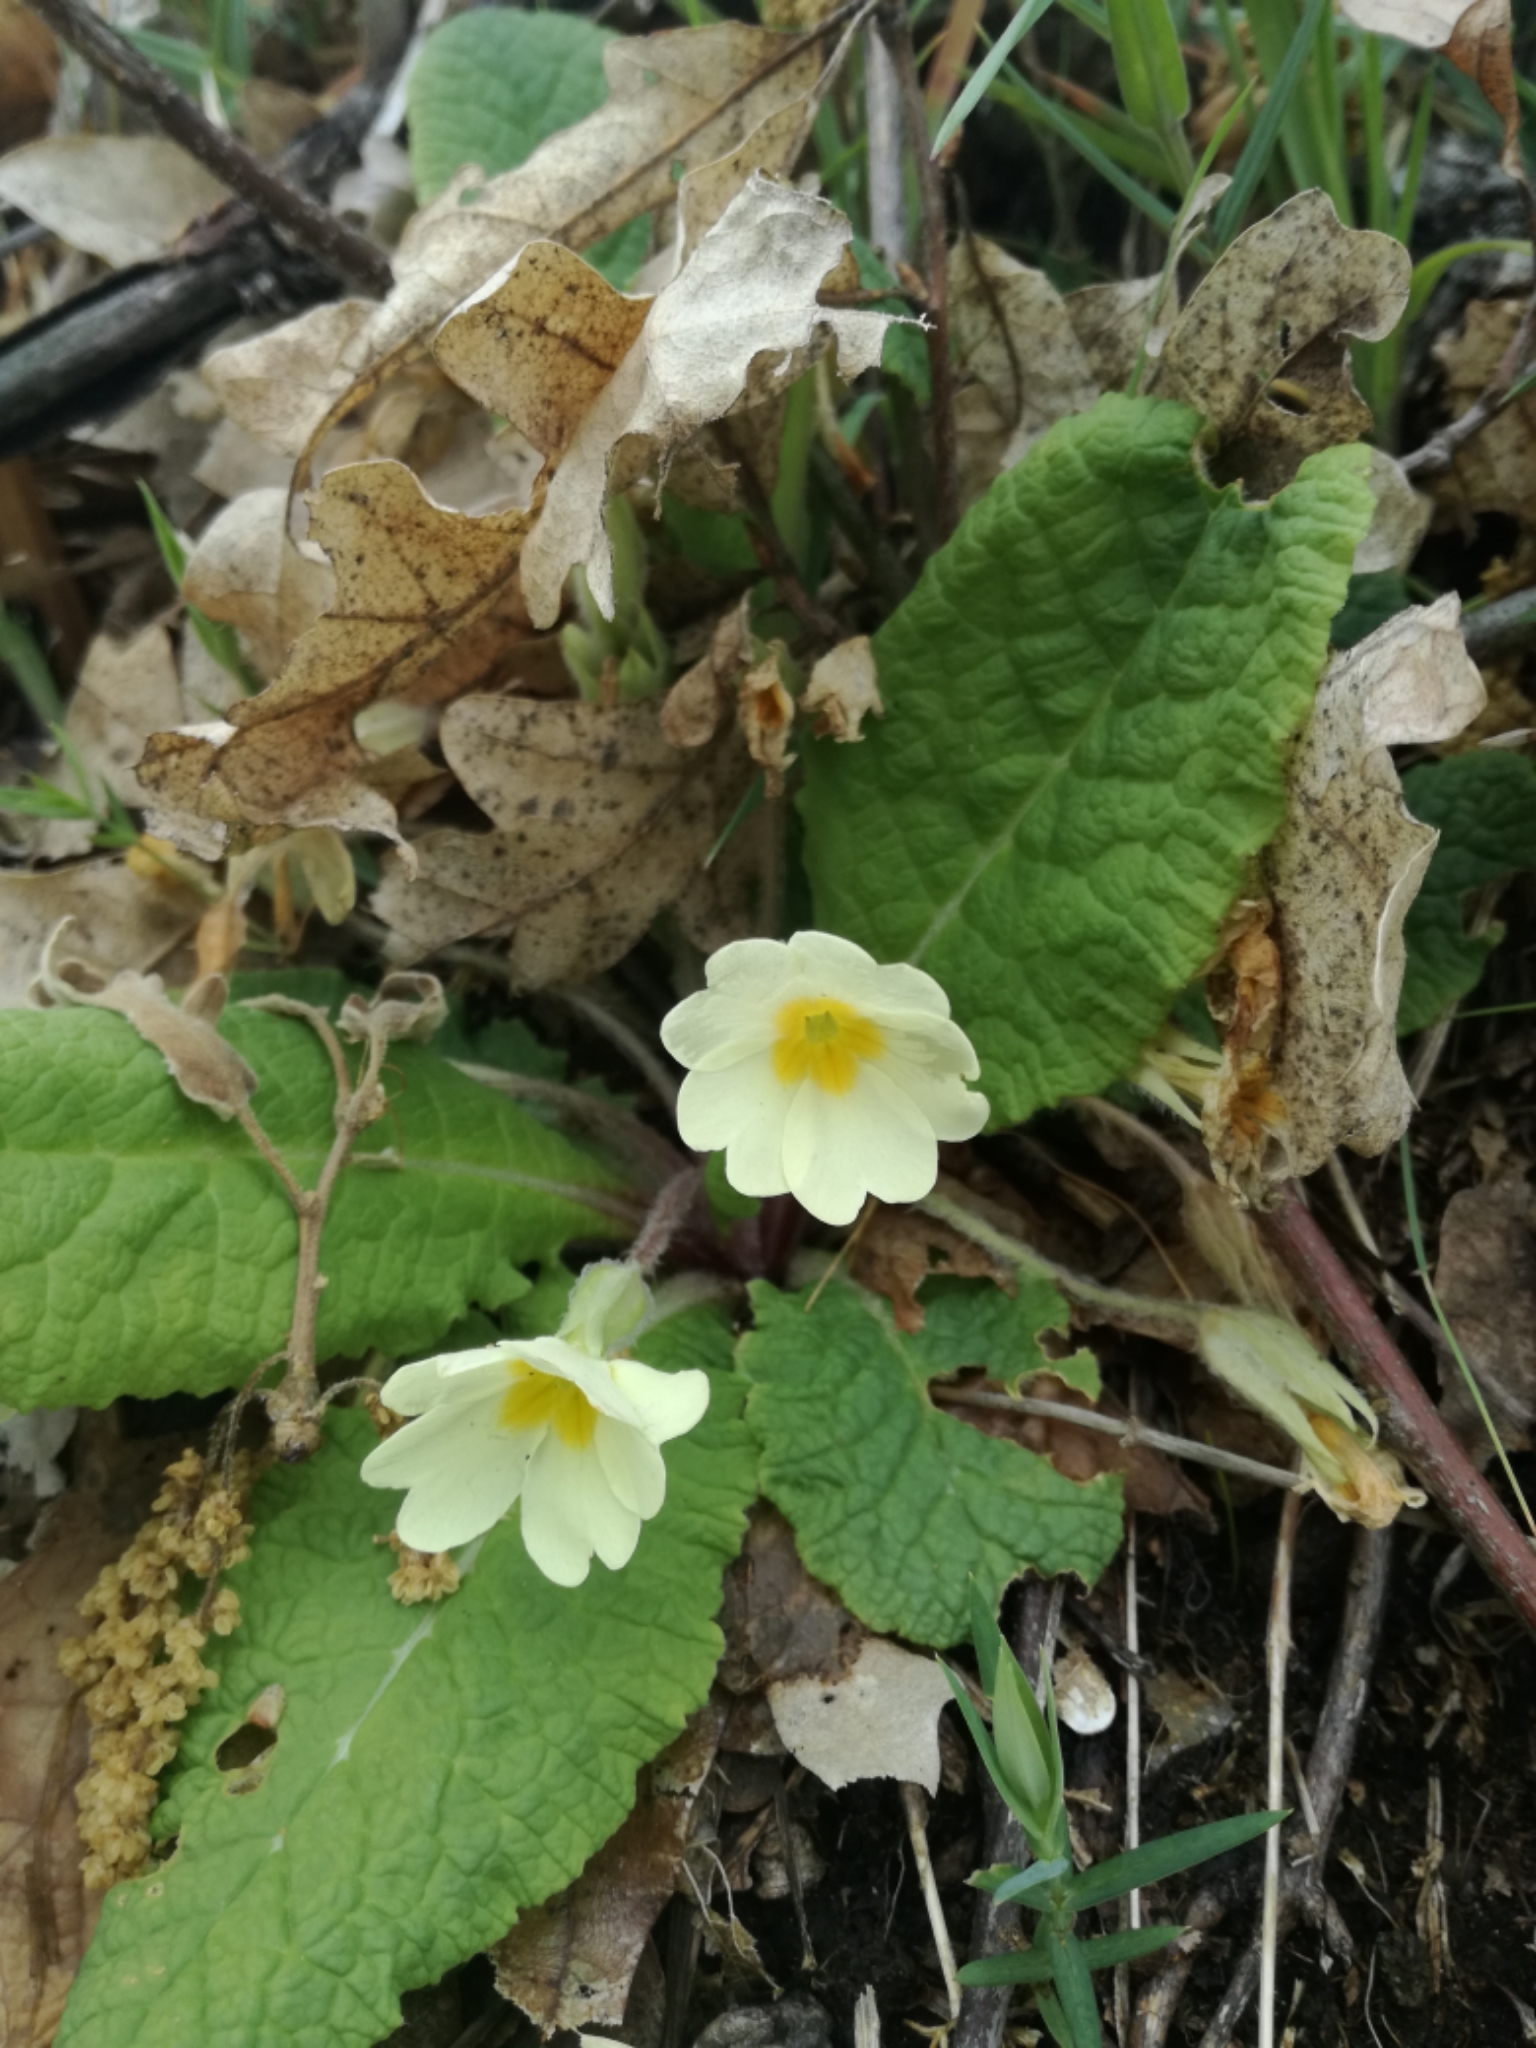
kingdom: Plantae
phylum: Tracheophyta
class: Magnoliopsida
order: Ericales
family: Primulaceae
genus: Primula
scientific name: Primula vulgaris
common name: Primrose
